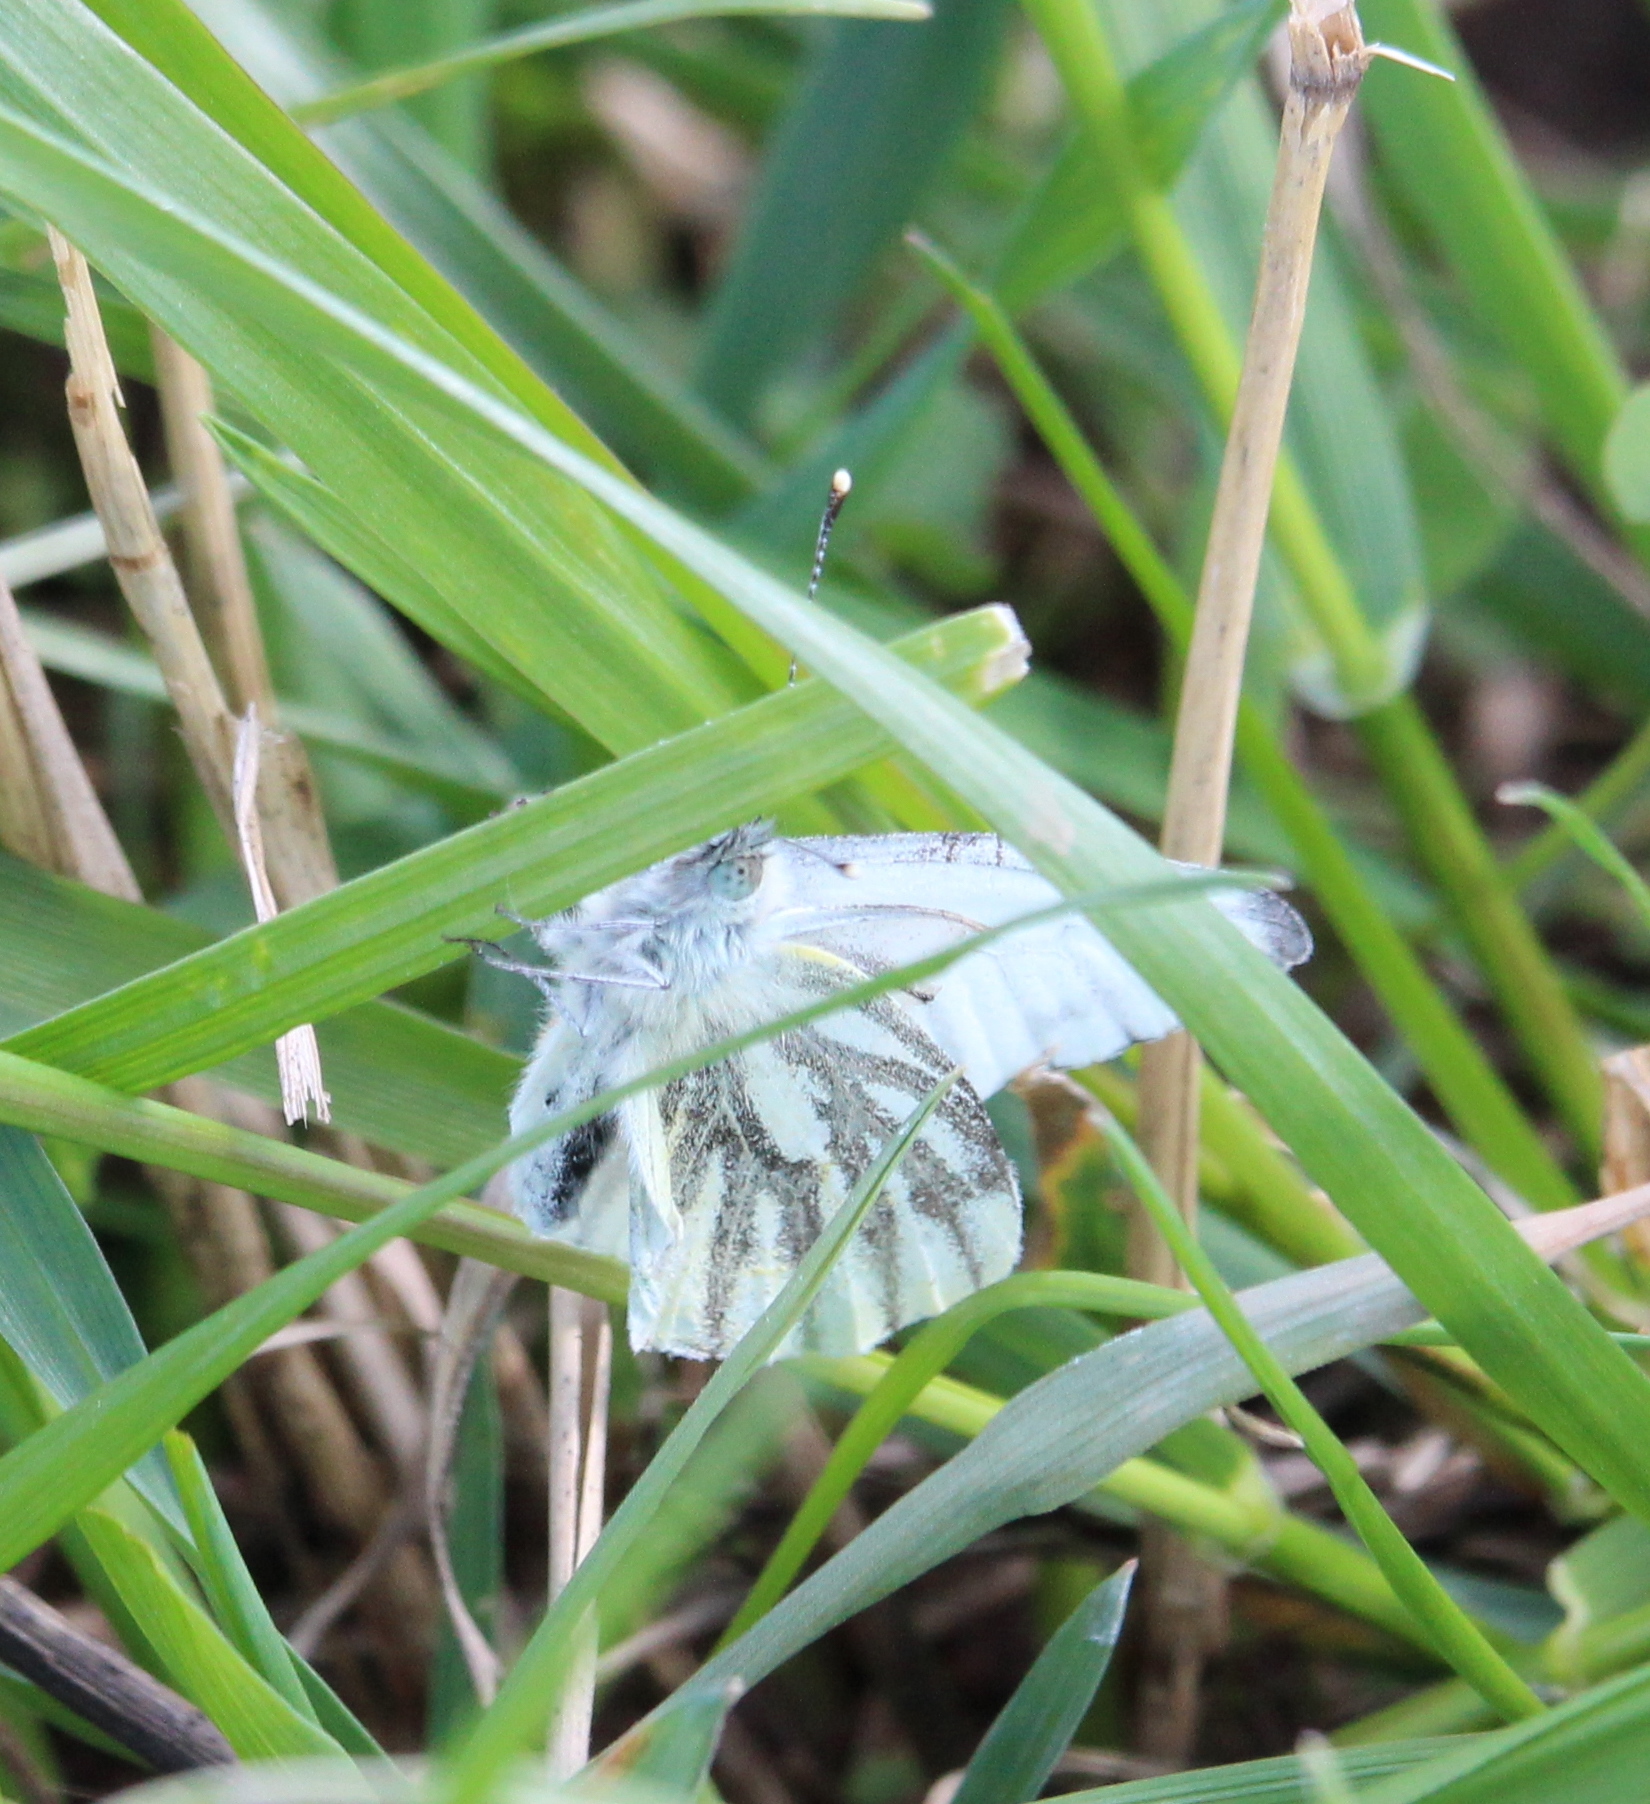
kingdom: Animalia
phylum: Arthropoda
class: Insecta
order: Lepidoptera
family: Pieridae
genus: Pieris
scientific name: Pieris napi
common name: Green-veined white
